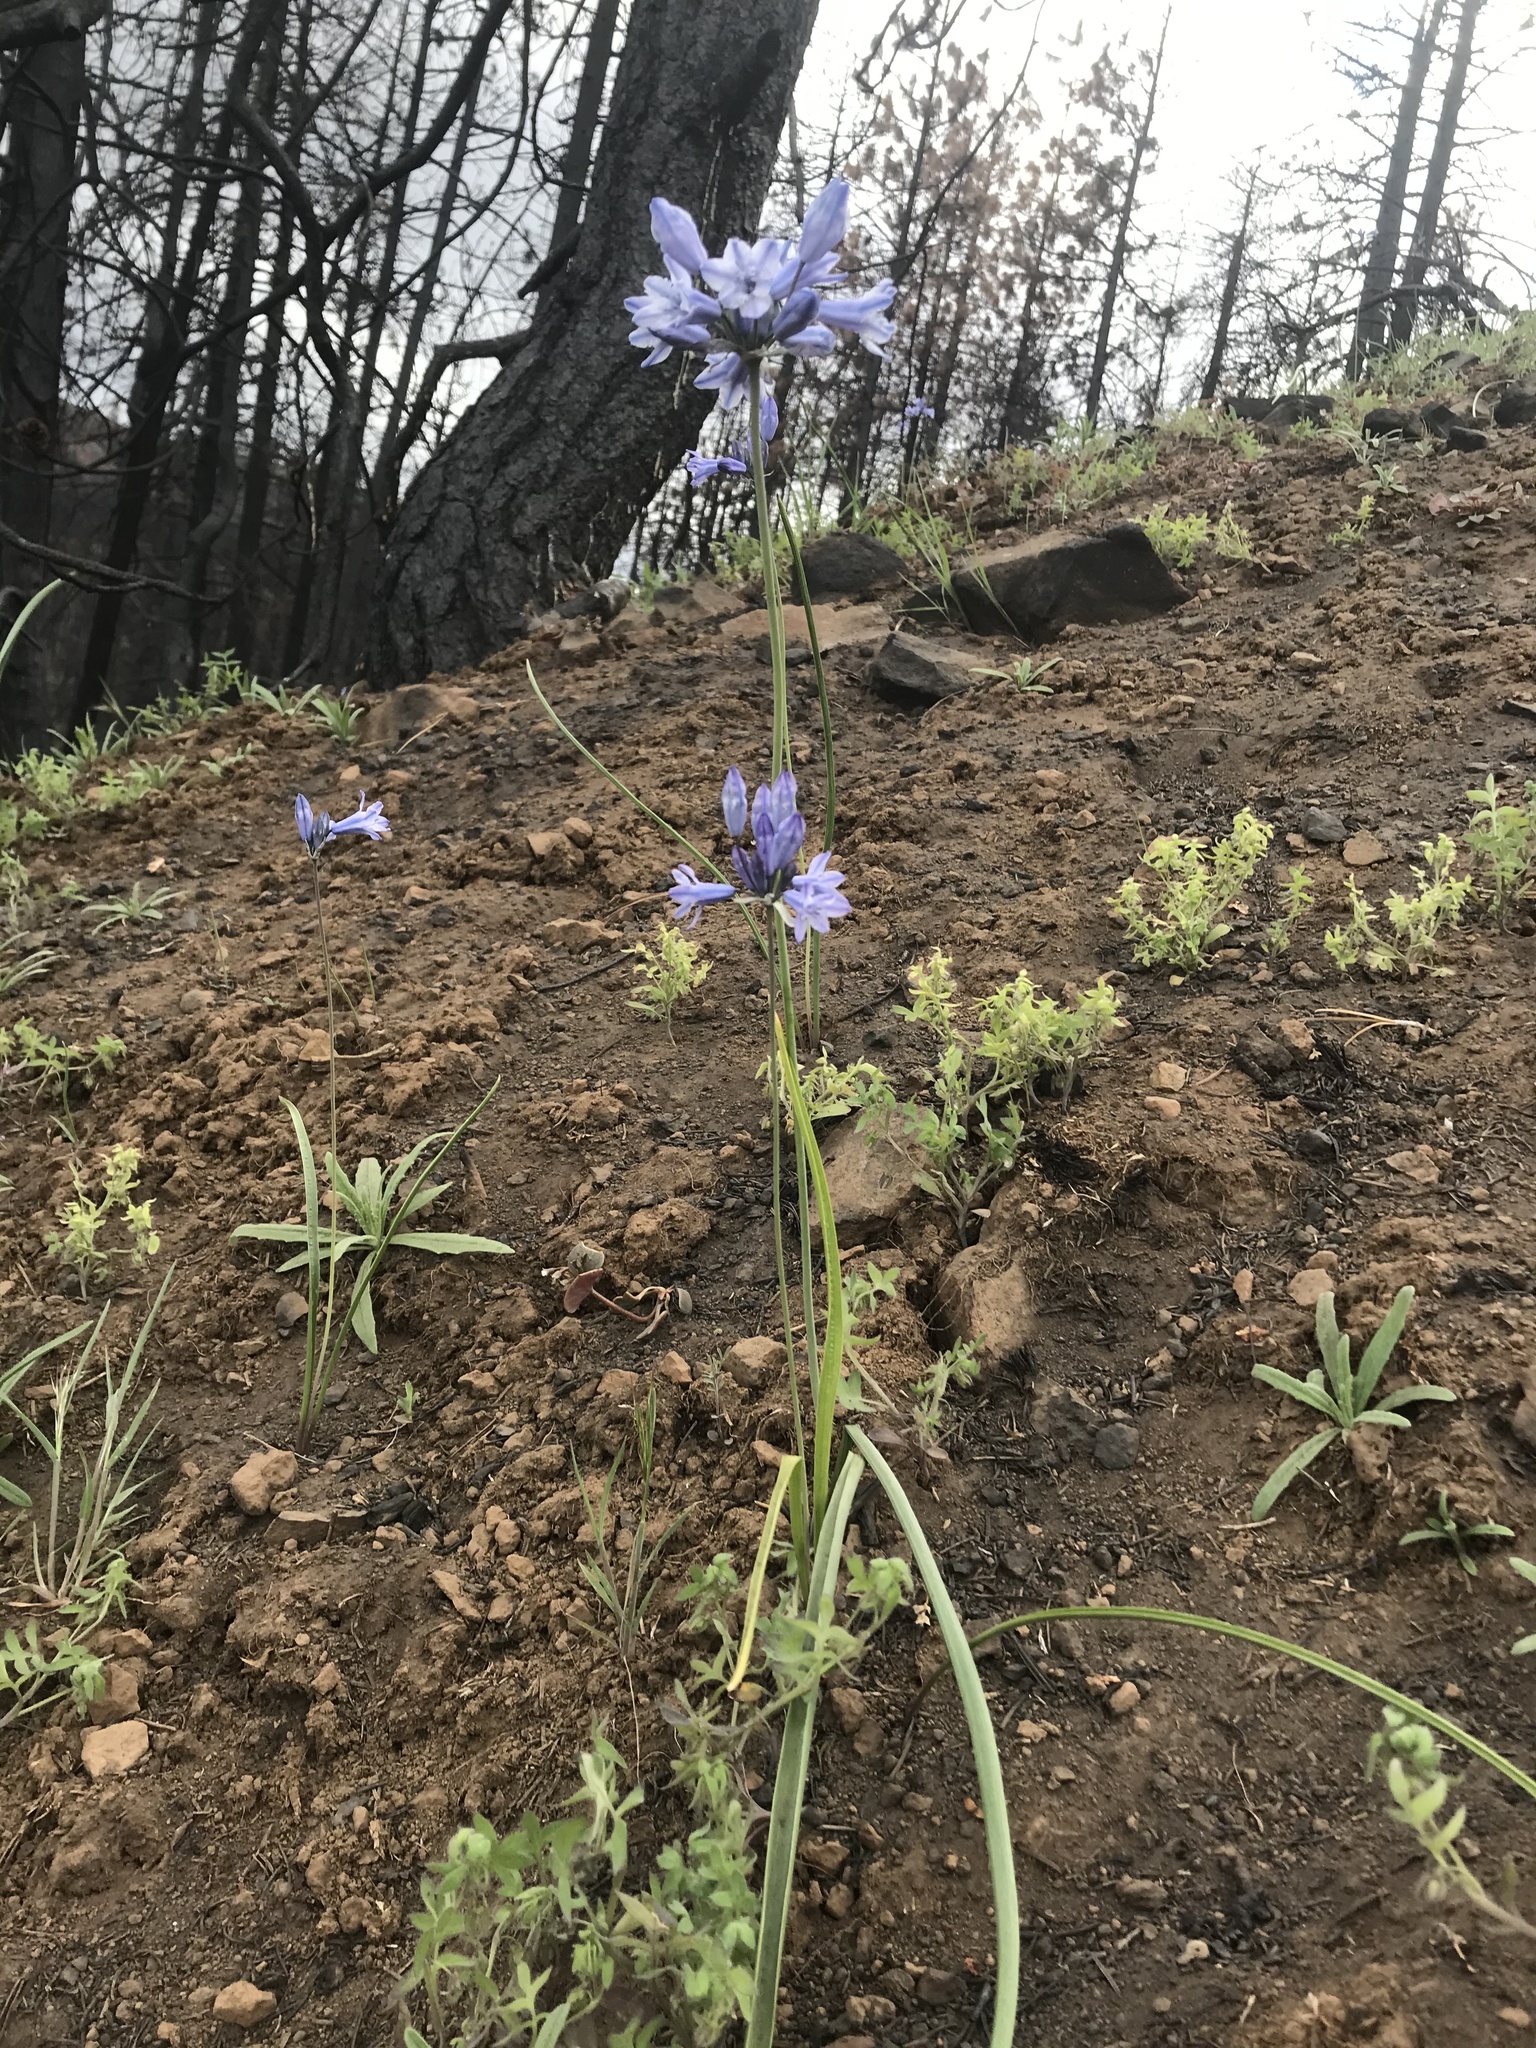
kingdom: Plantae
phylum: Tracheophyta
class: Liliopsida
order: Asparagales
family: Asparagaceae
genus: Triteleia
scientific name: Triteleia grandiflora
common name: Wild hyacinth
